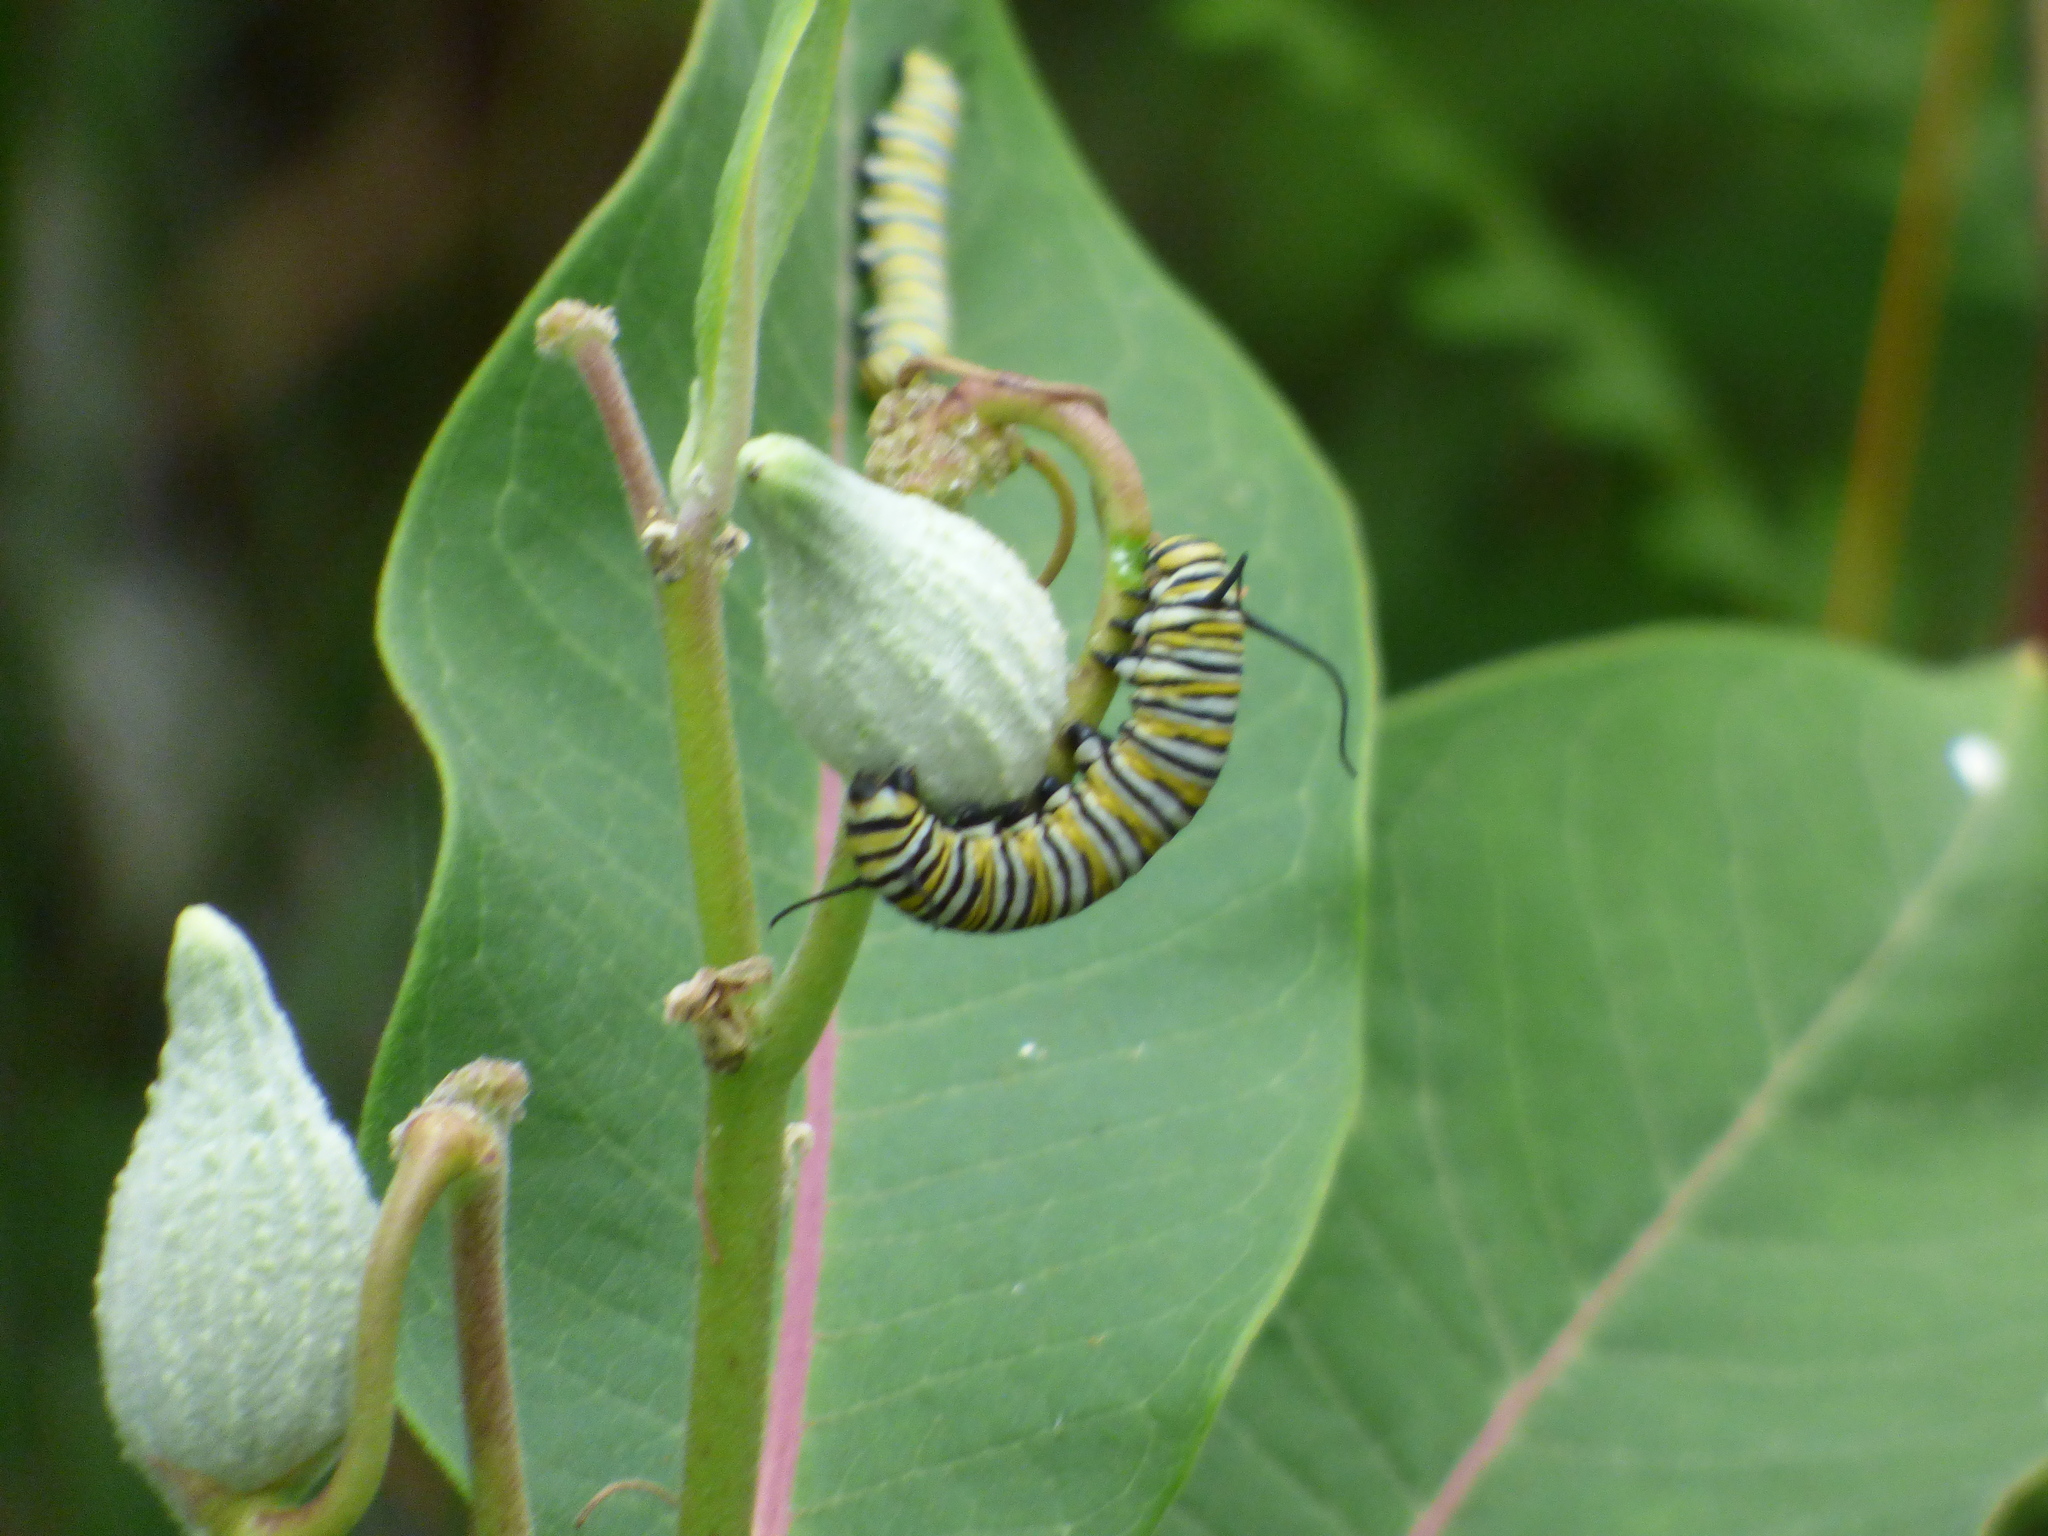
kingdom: Animalia
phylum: Arthropoda
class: Insecta
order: Lepidoptera
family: Nymphalidae
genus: Danaus
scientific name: Danaus plexippus
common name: Monarch
